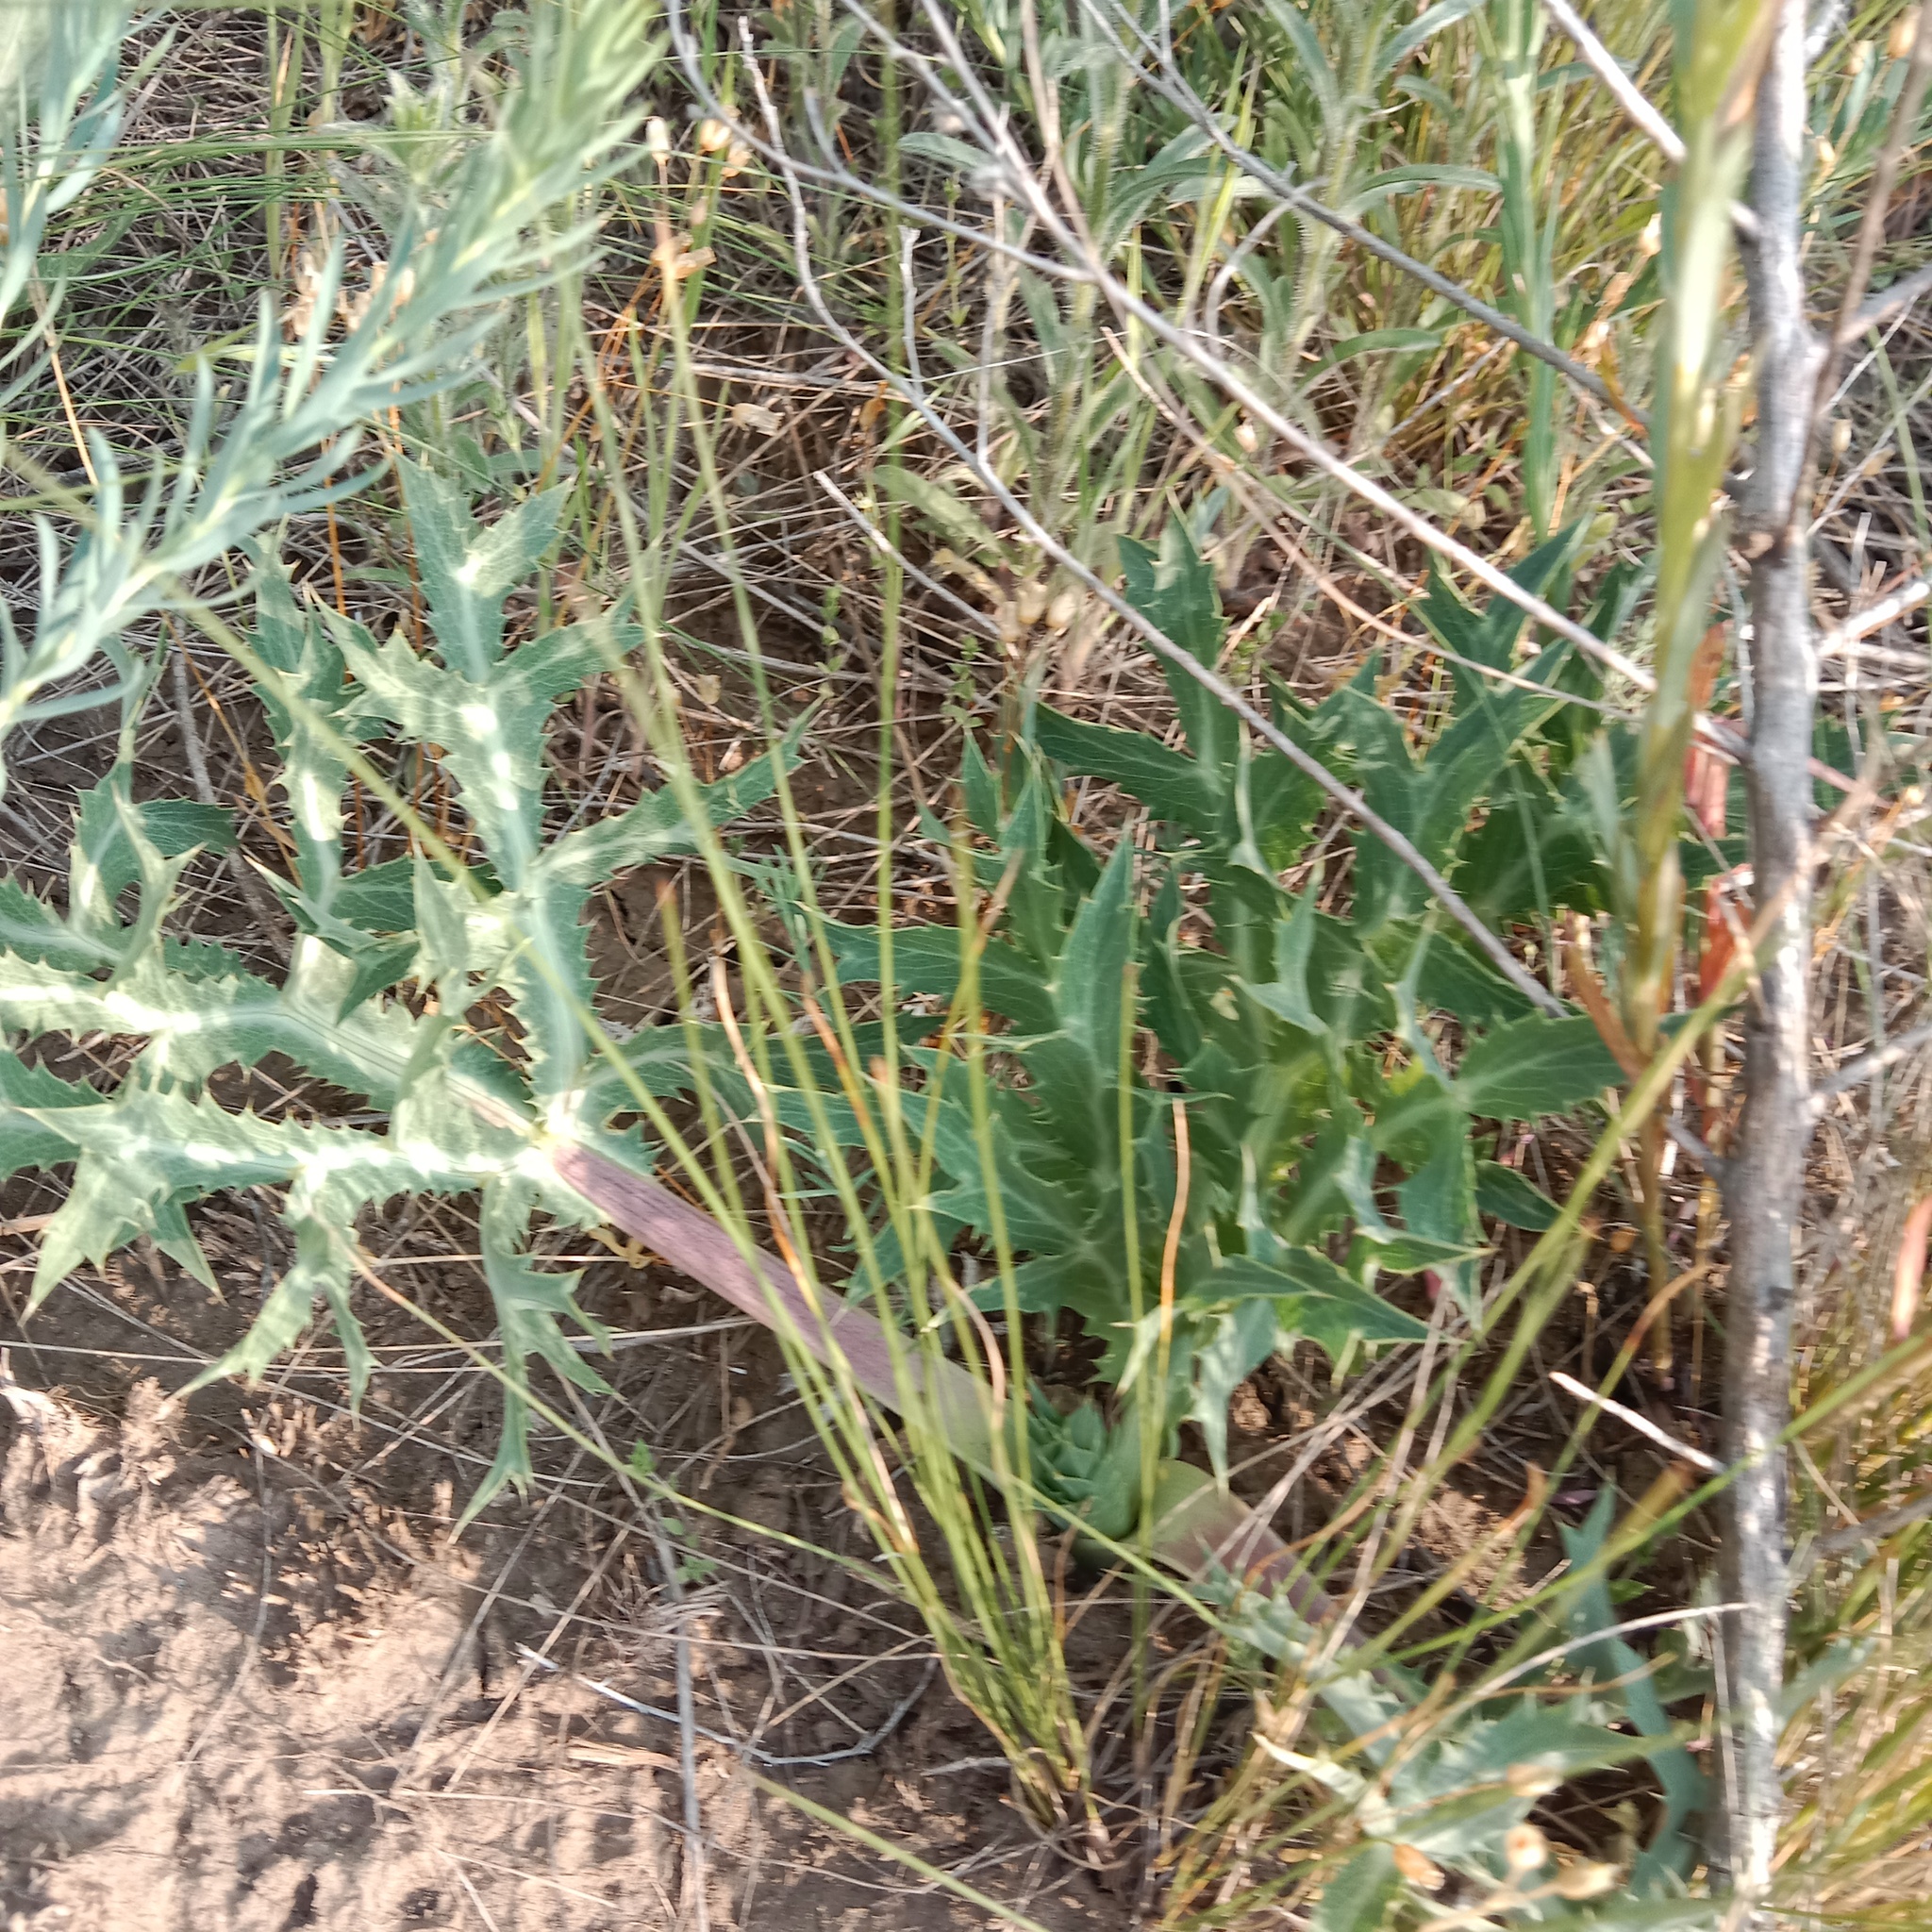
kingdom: Plantae
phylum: Tracheophyta
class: Magnoliopsida
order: Apiales
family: Apiaceae
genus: Eryngium
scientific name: Eryngium campestre
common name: Field eryngo
